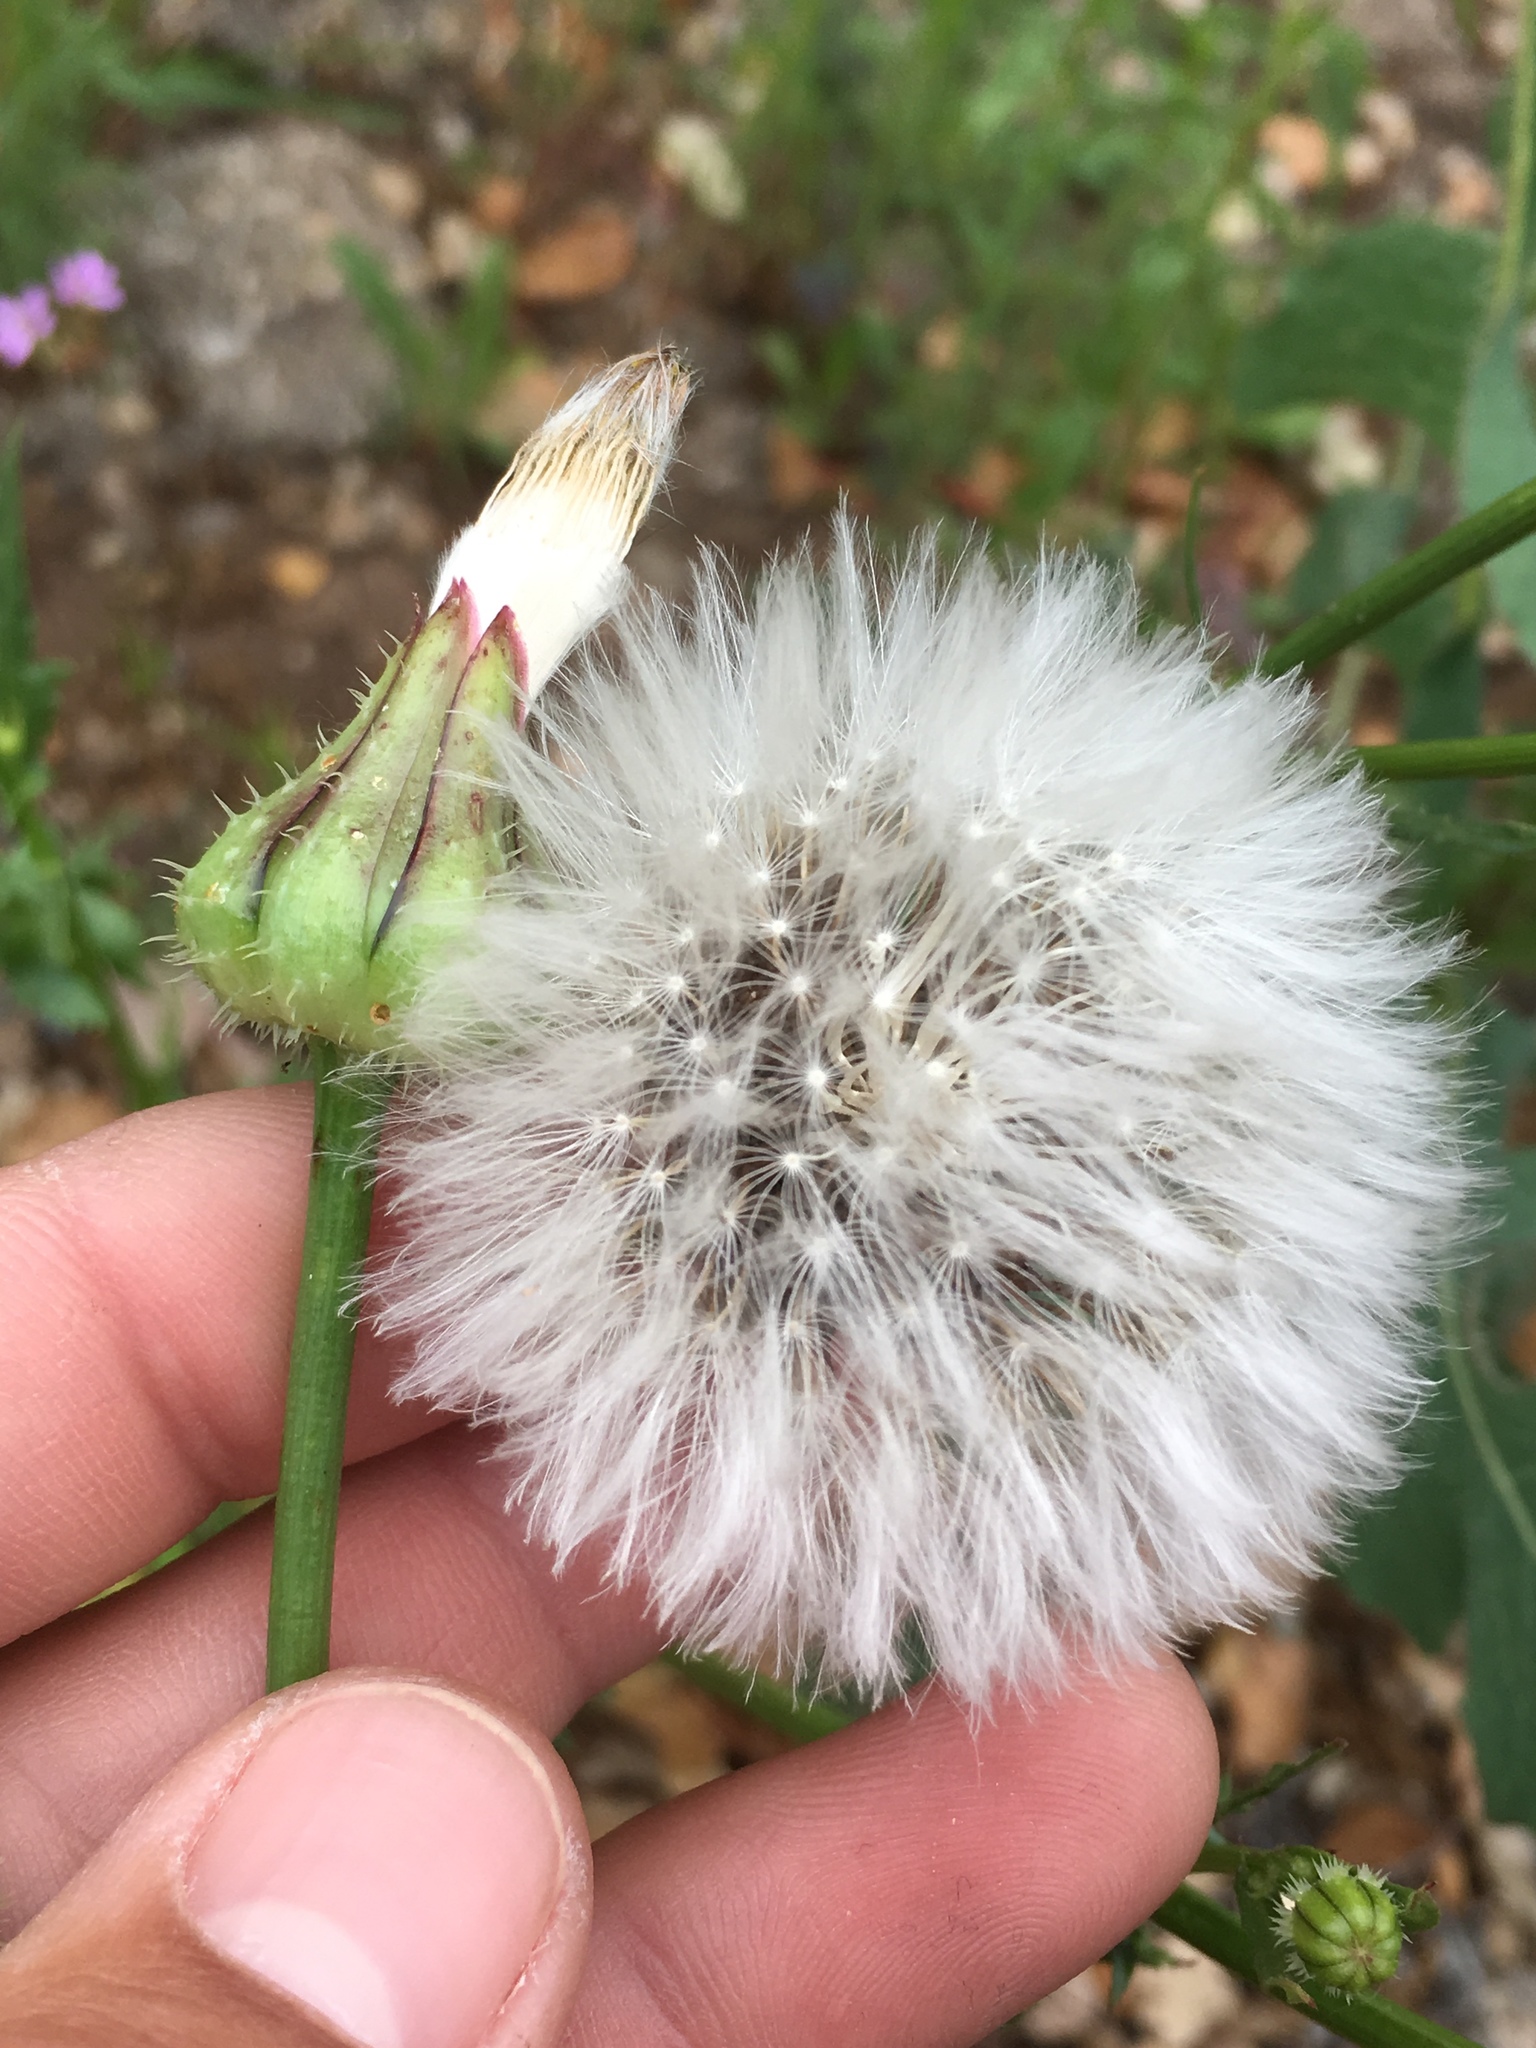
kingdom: Plantae
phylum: Tracheophyta
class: Magnoliopsida
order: Asterales
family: Asteraceae
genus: Urospermum
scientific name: Urospermum picroides
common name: False hawkbit
